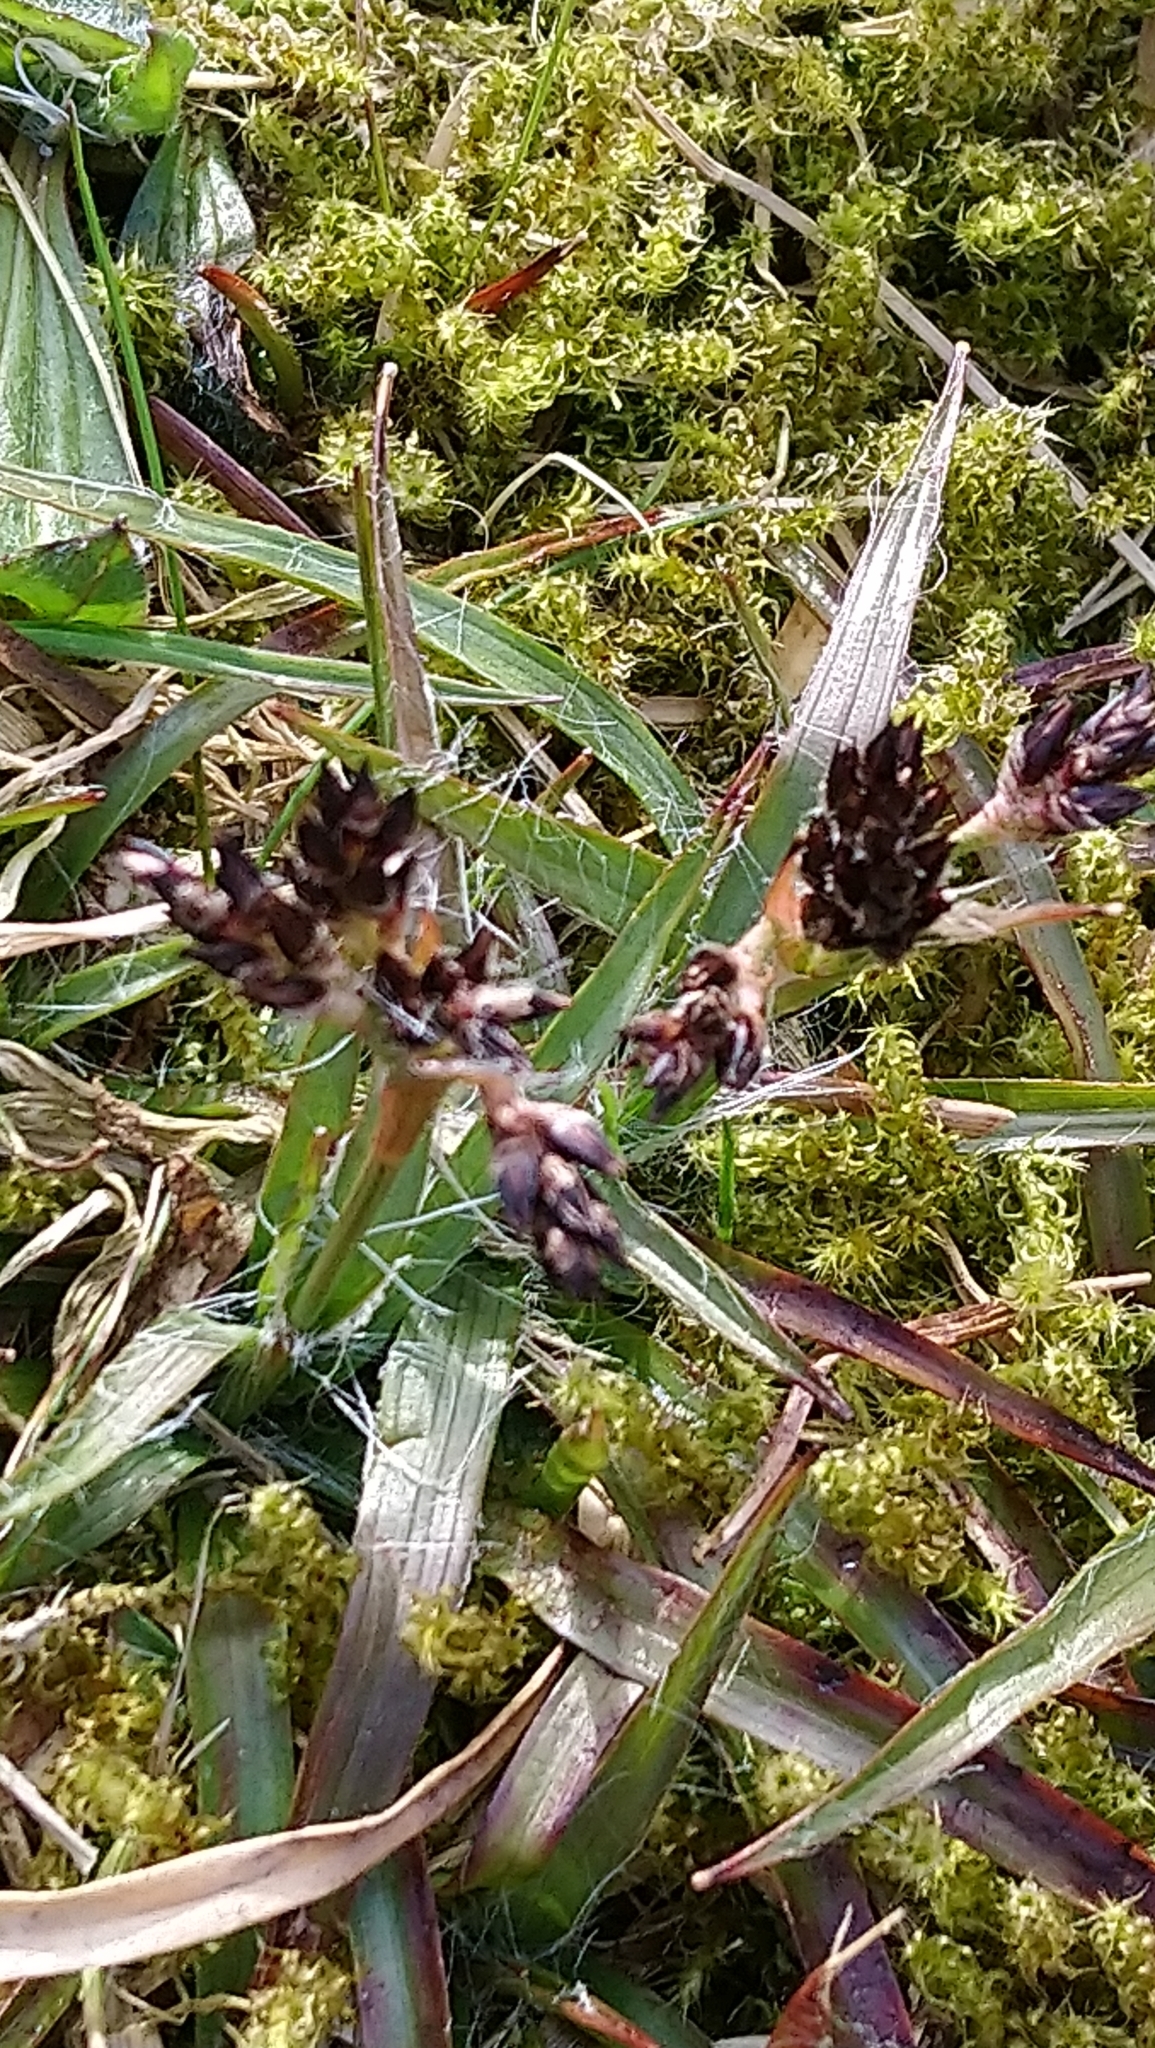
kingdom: Plantae
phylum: Tracheophyta
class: Liliopsida
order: Poales
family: Juncaceae
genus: Luzula
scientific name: Luzula campestris
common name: Field wood-rush
